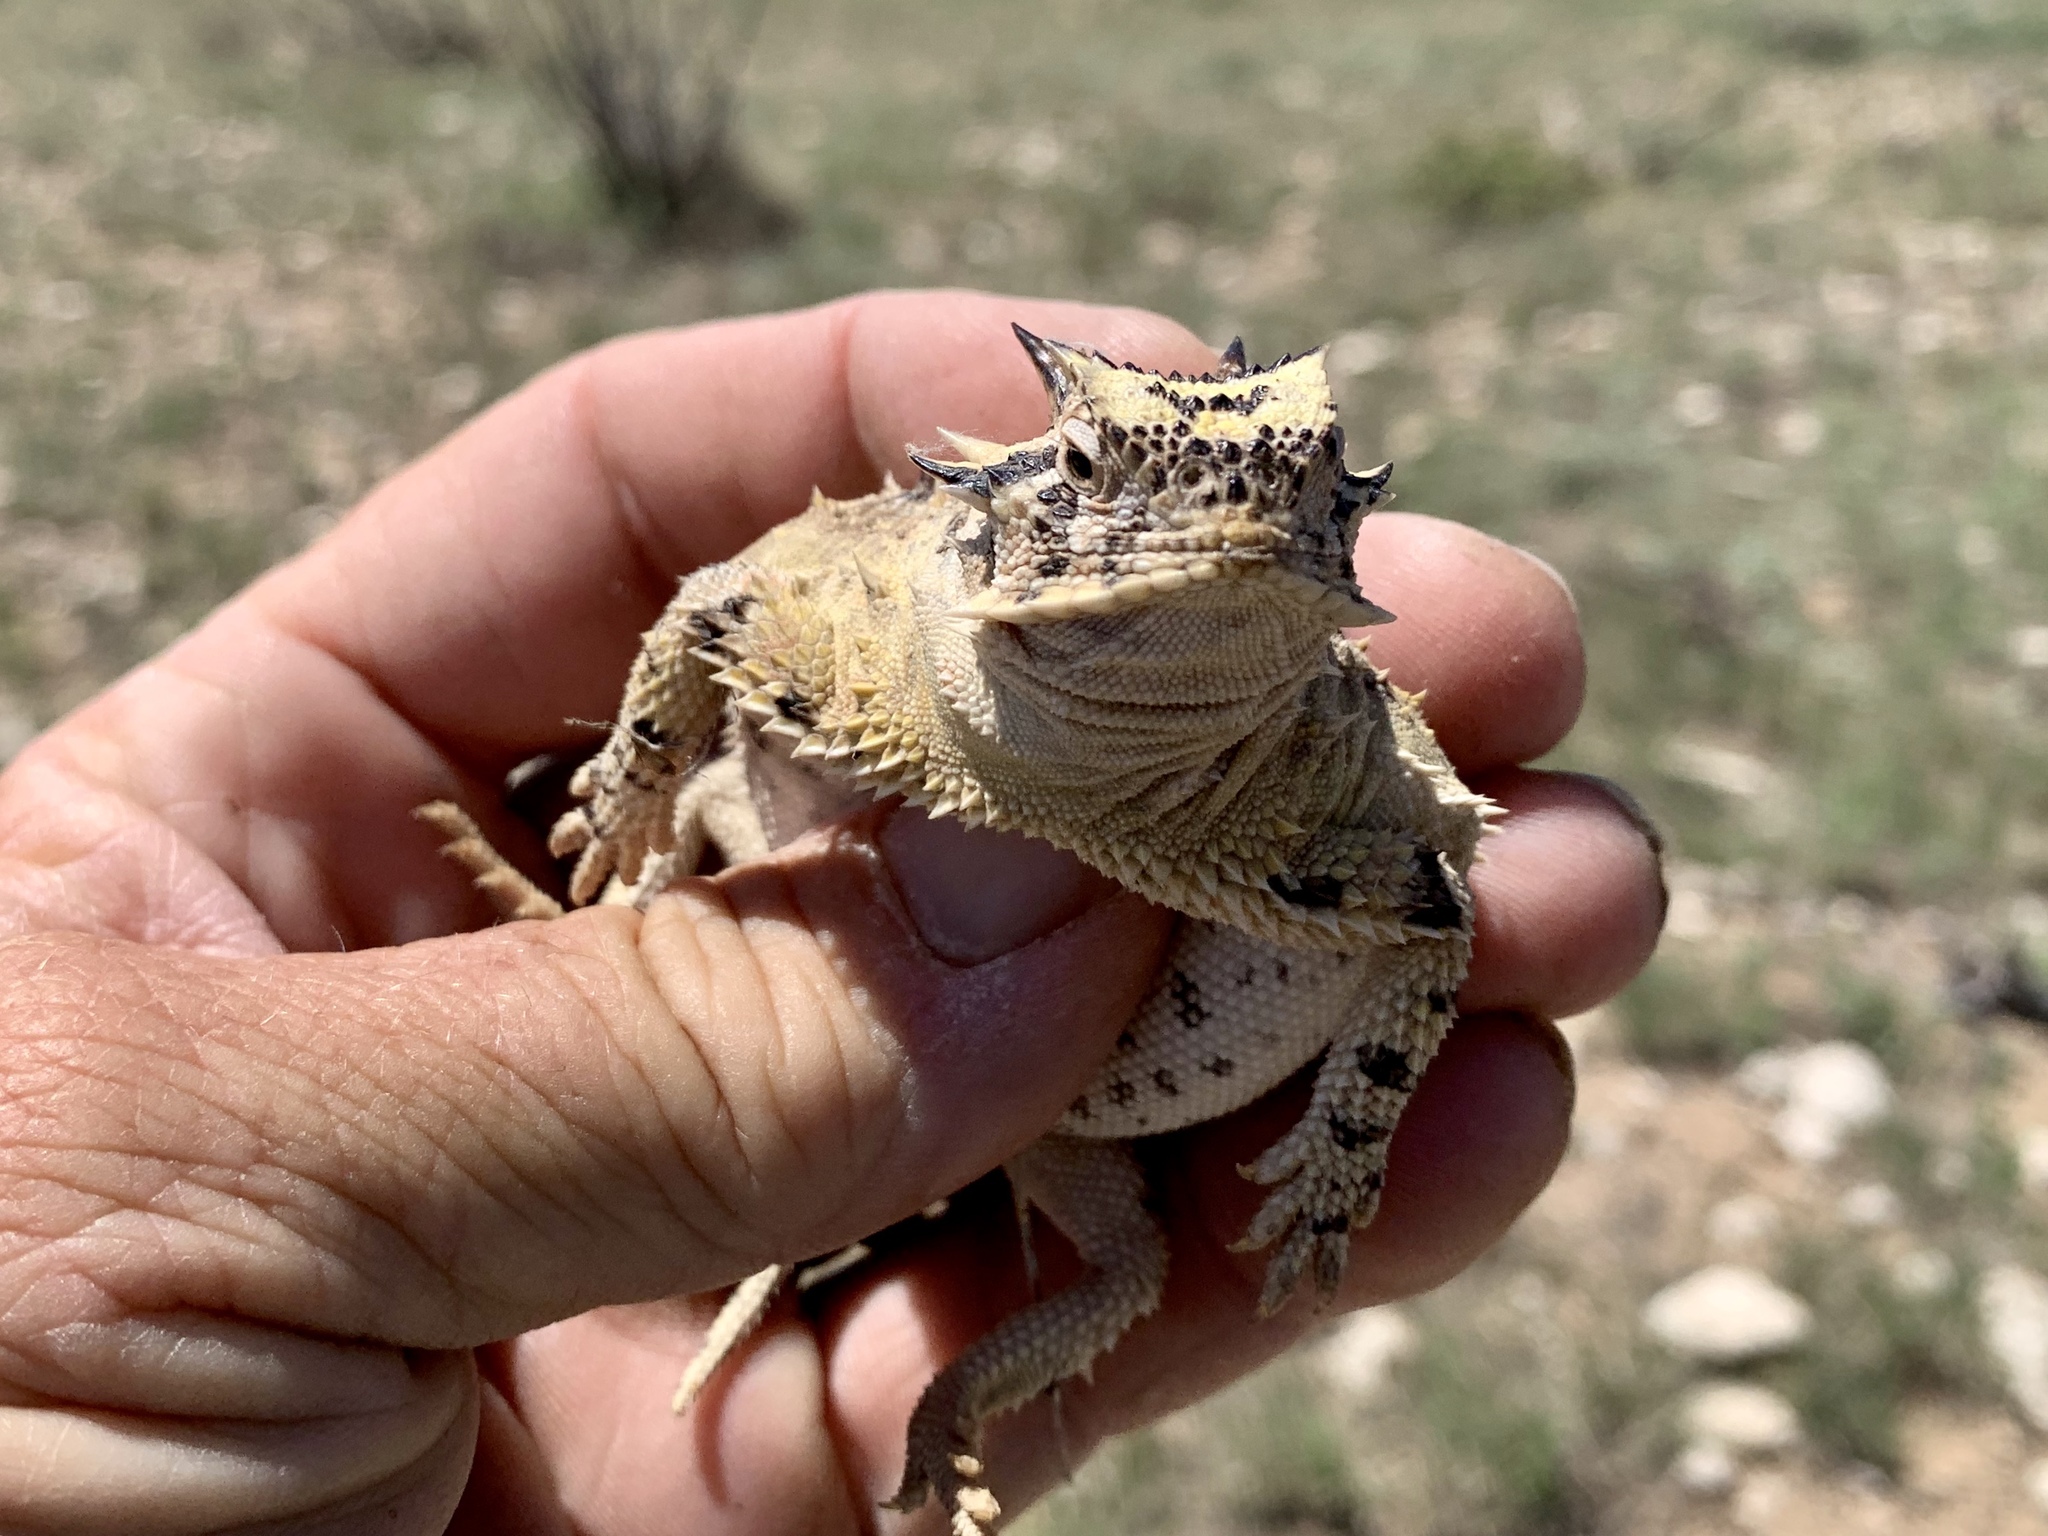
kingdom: Animalia
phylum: Chordata
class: Squamata
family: Phrynosomatidae
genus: Phrynosoma
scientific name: Phrynosoma cornutum
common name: Texas horned lizard
